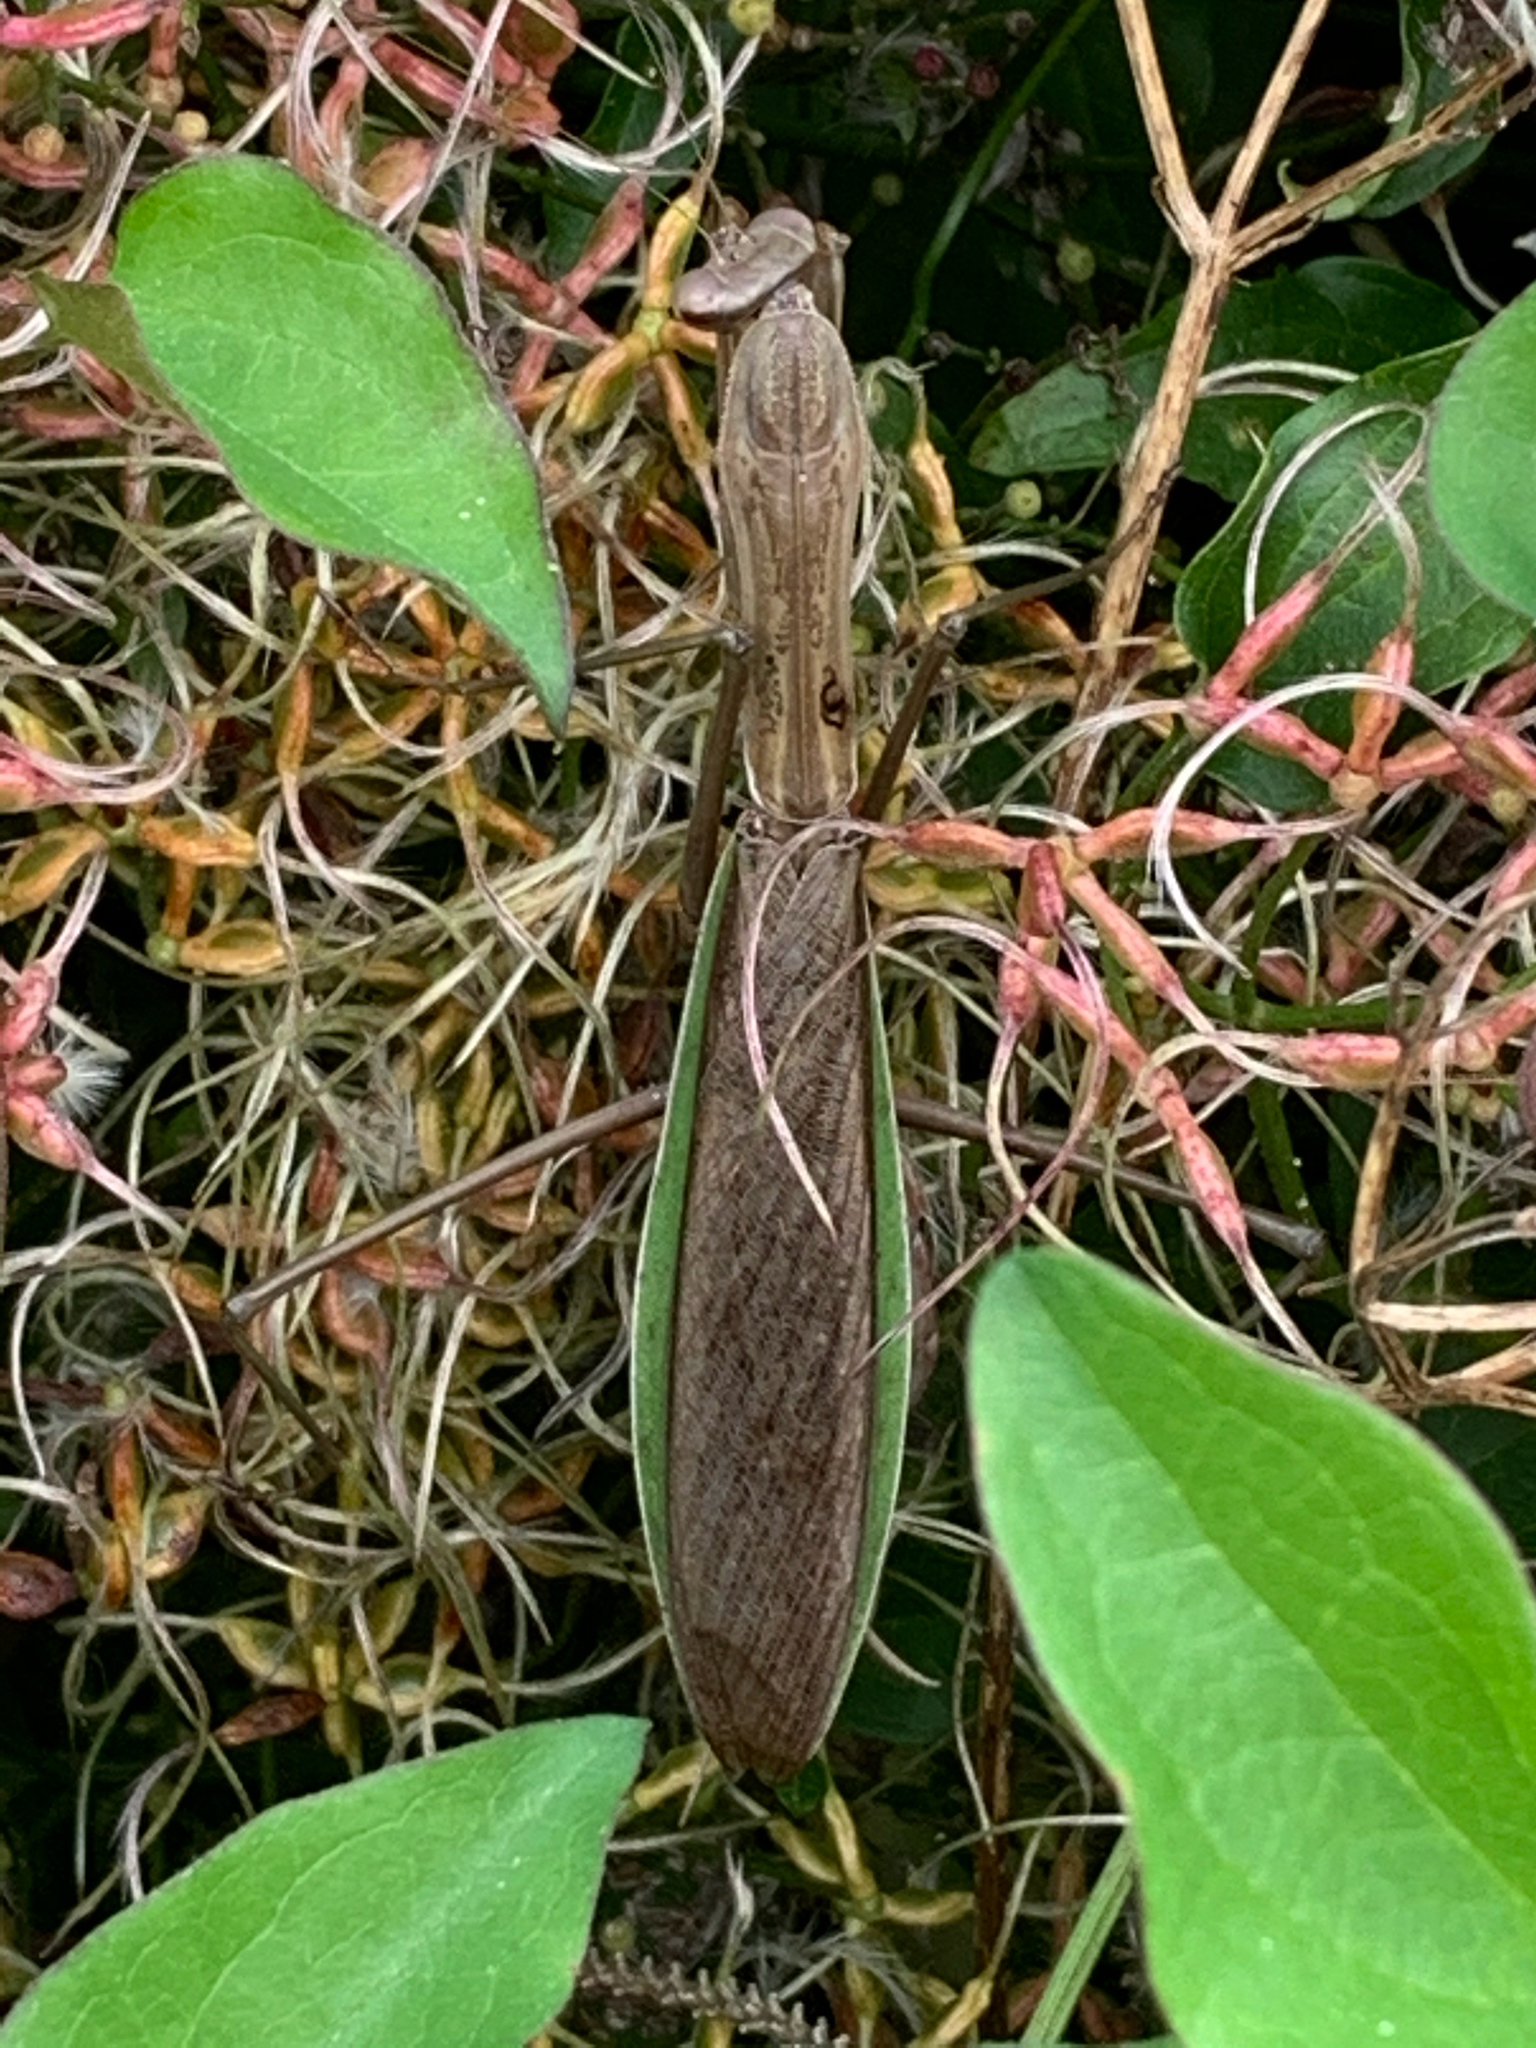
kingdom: Animalia
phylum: Arthropoda
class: Insecta
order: Mantodea
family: Mantidae
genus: Tenodera
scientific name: Tenodera sinensis
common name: Chinese mantis
